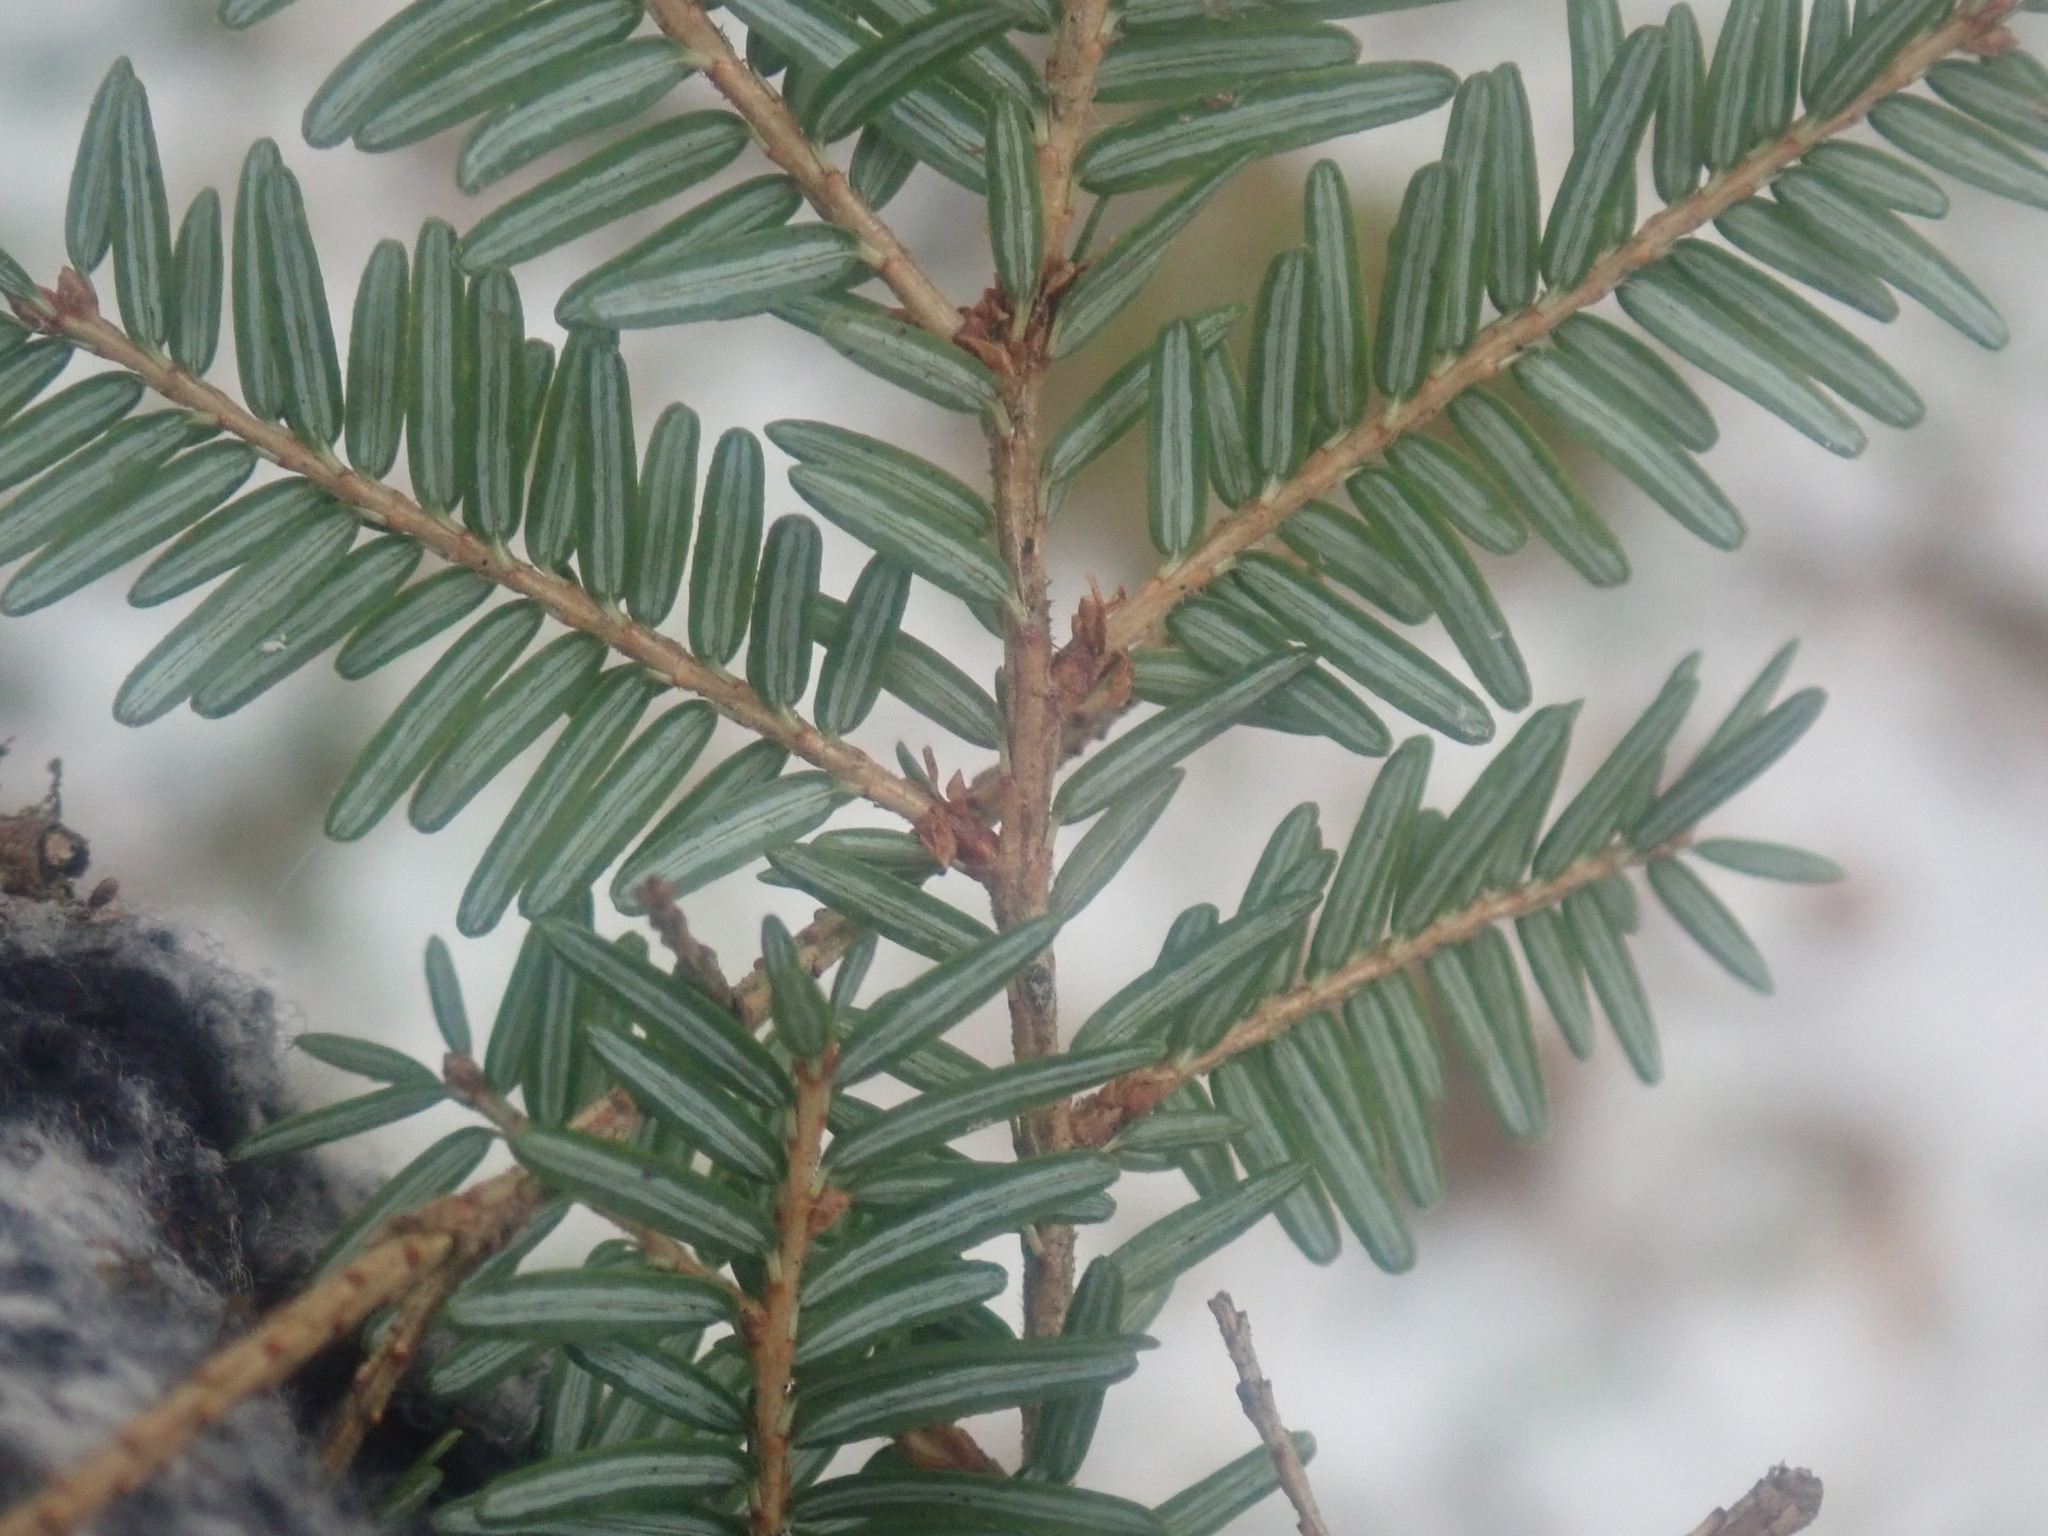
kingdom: Plantae
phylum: Tracheophyta
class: Pinopsida
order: Pinales
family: Pinaceae
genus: Tsuga
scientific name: Tsuga canadensis
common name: Eastern hemlock
